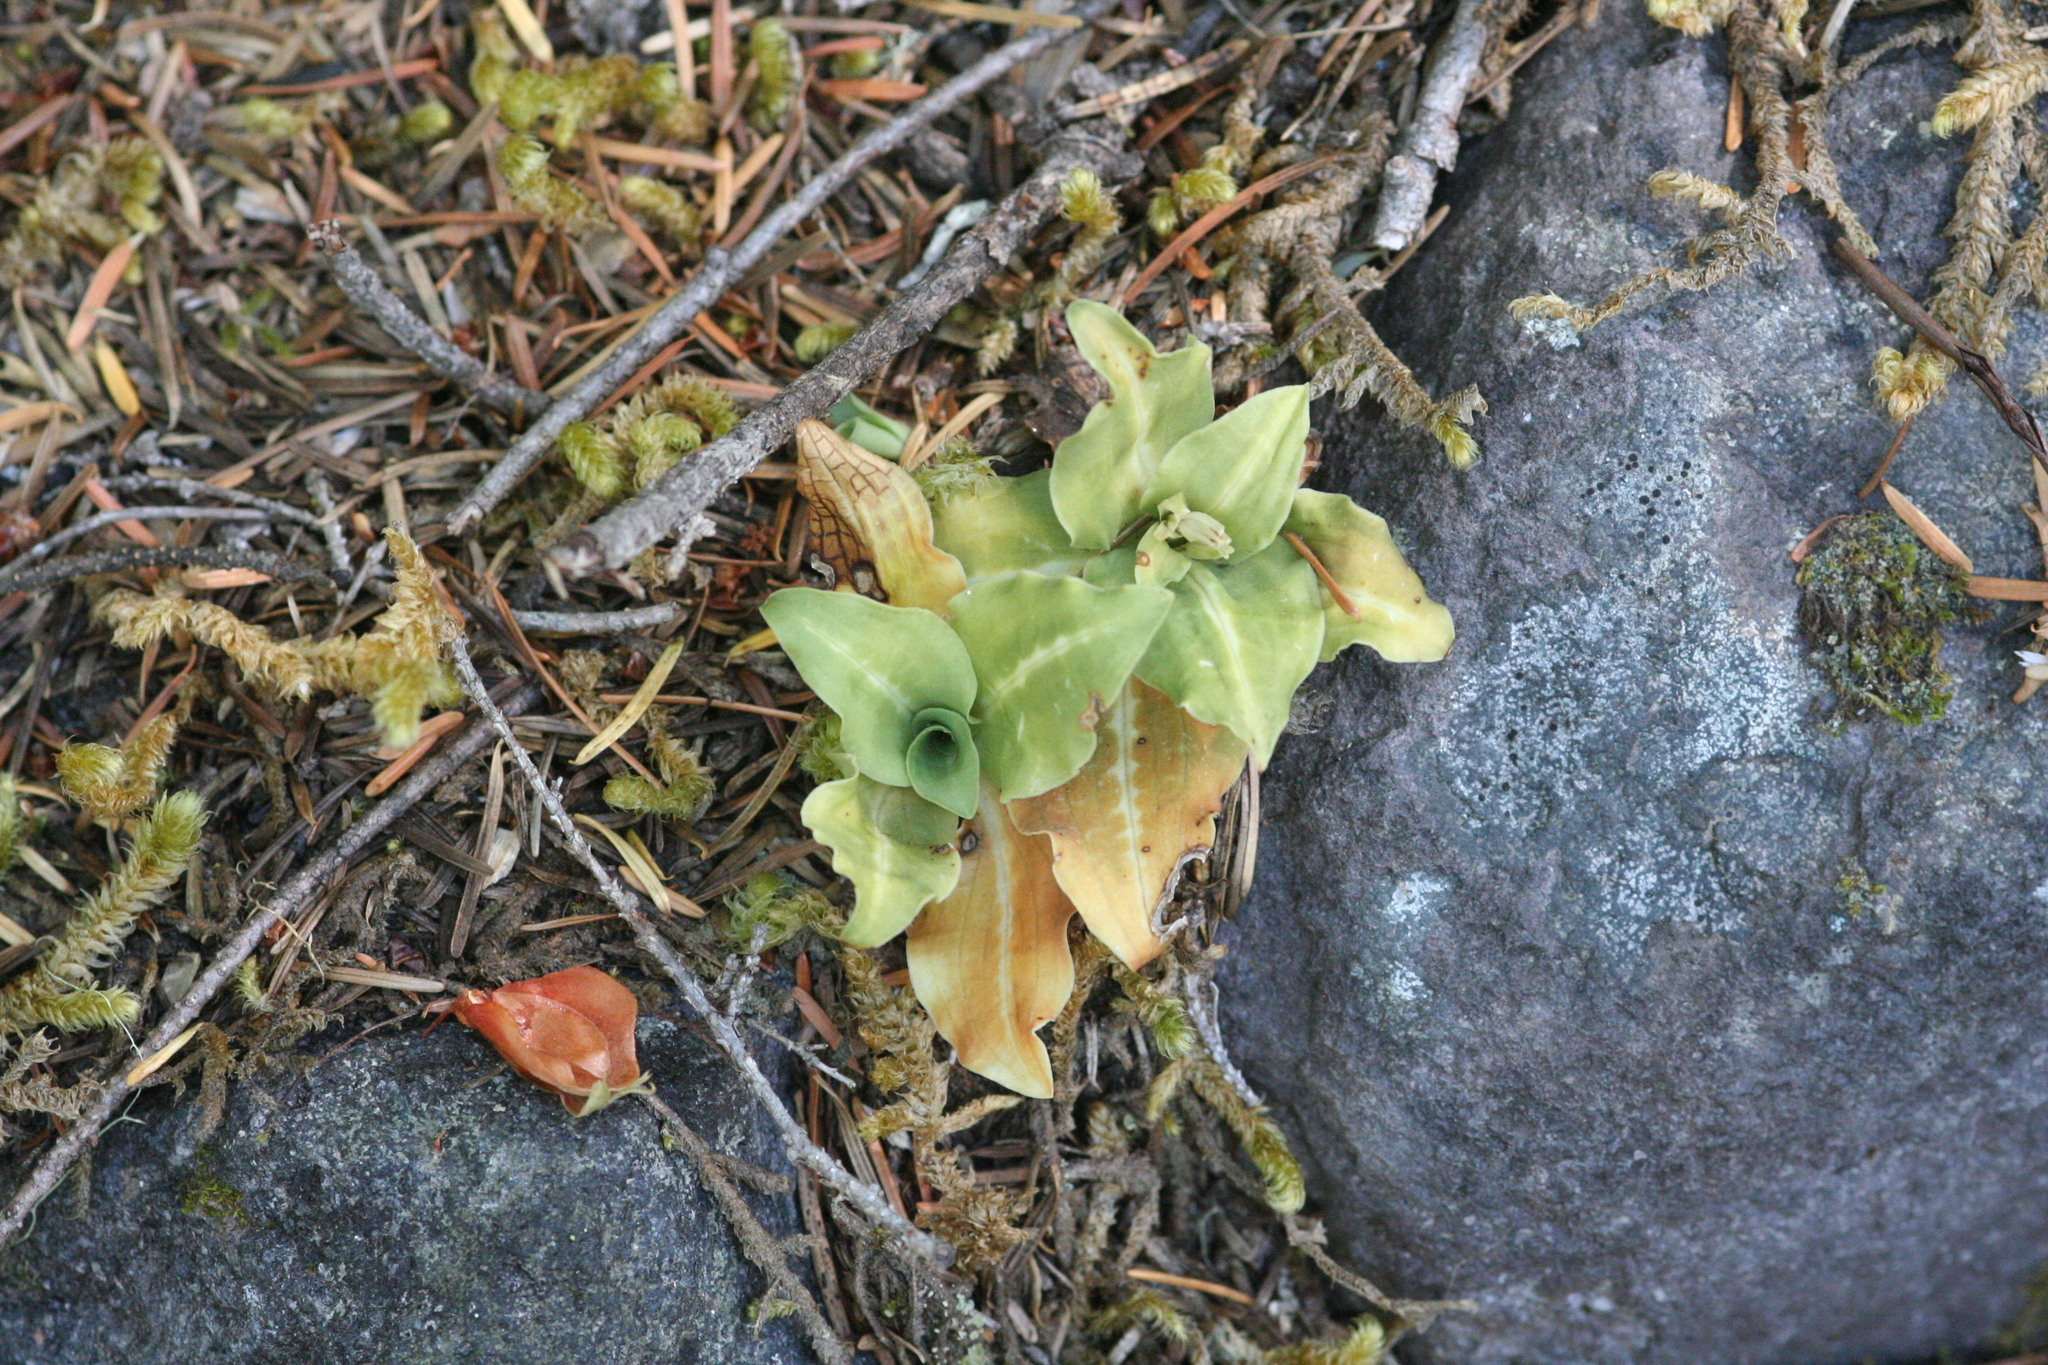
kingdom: Plantae
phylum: Tracheophyta
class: Liliopsida
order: Asparagales
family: Orchidaceae
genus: Goodyera
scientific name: Goodyera oblongifolia
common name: Giant rattlesnake-plantain
